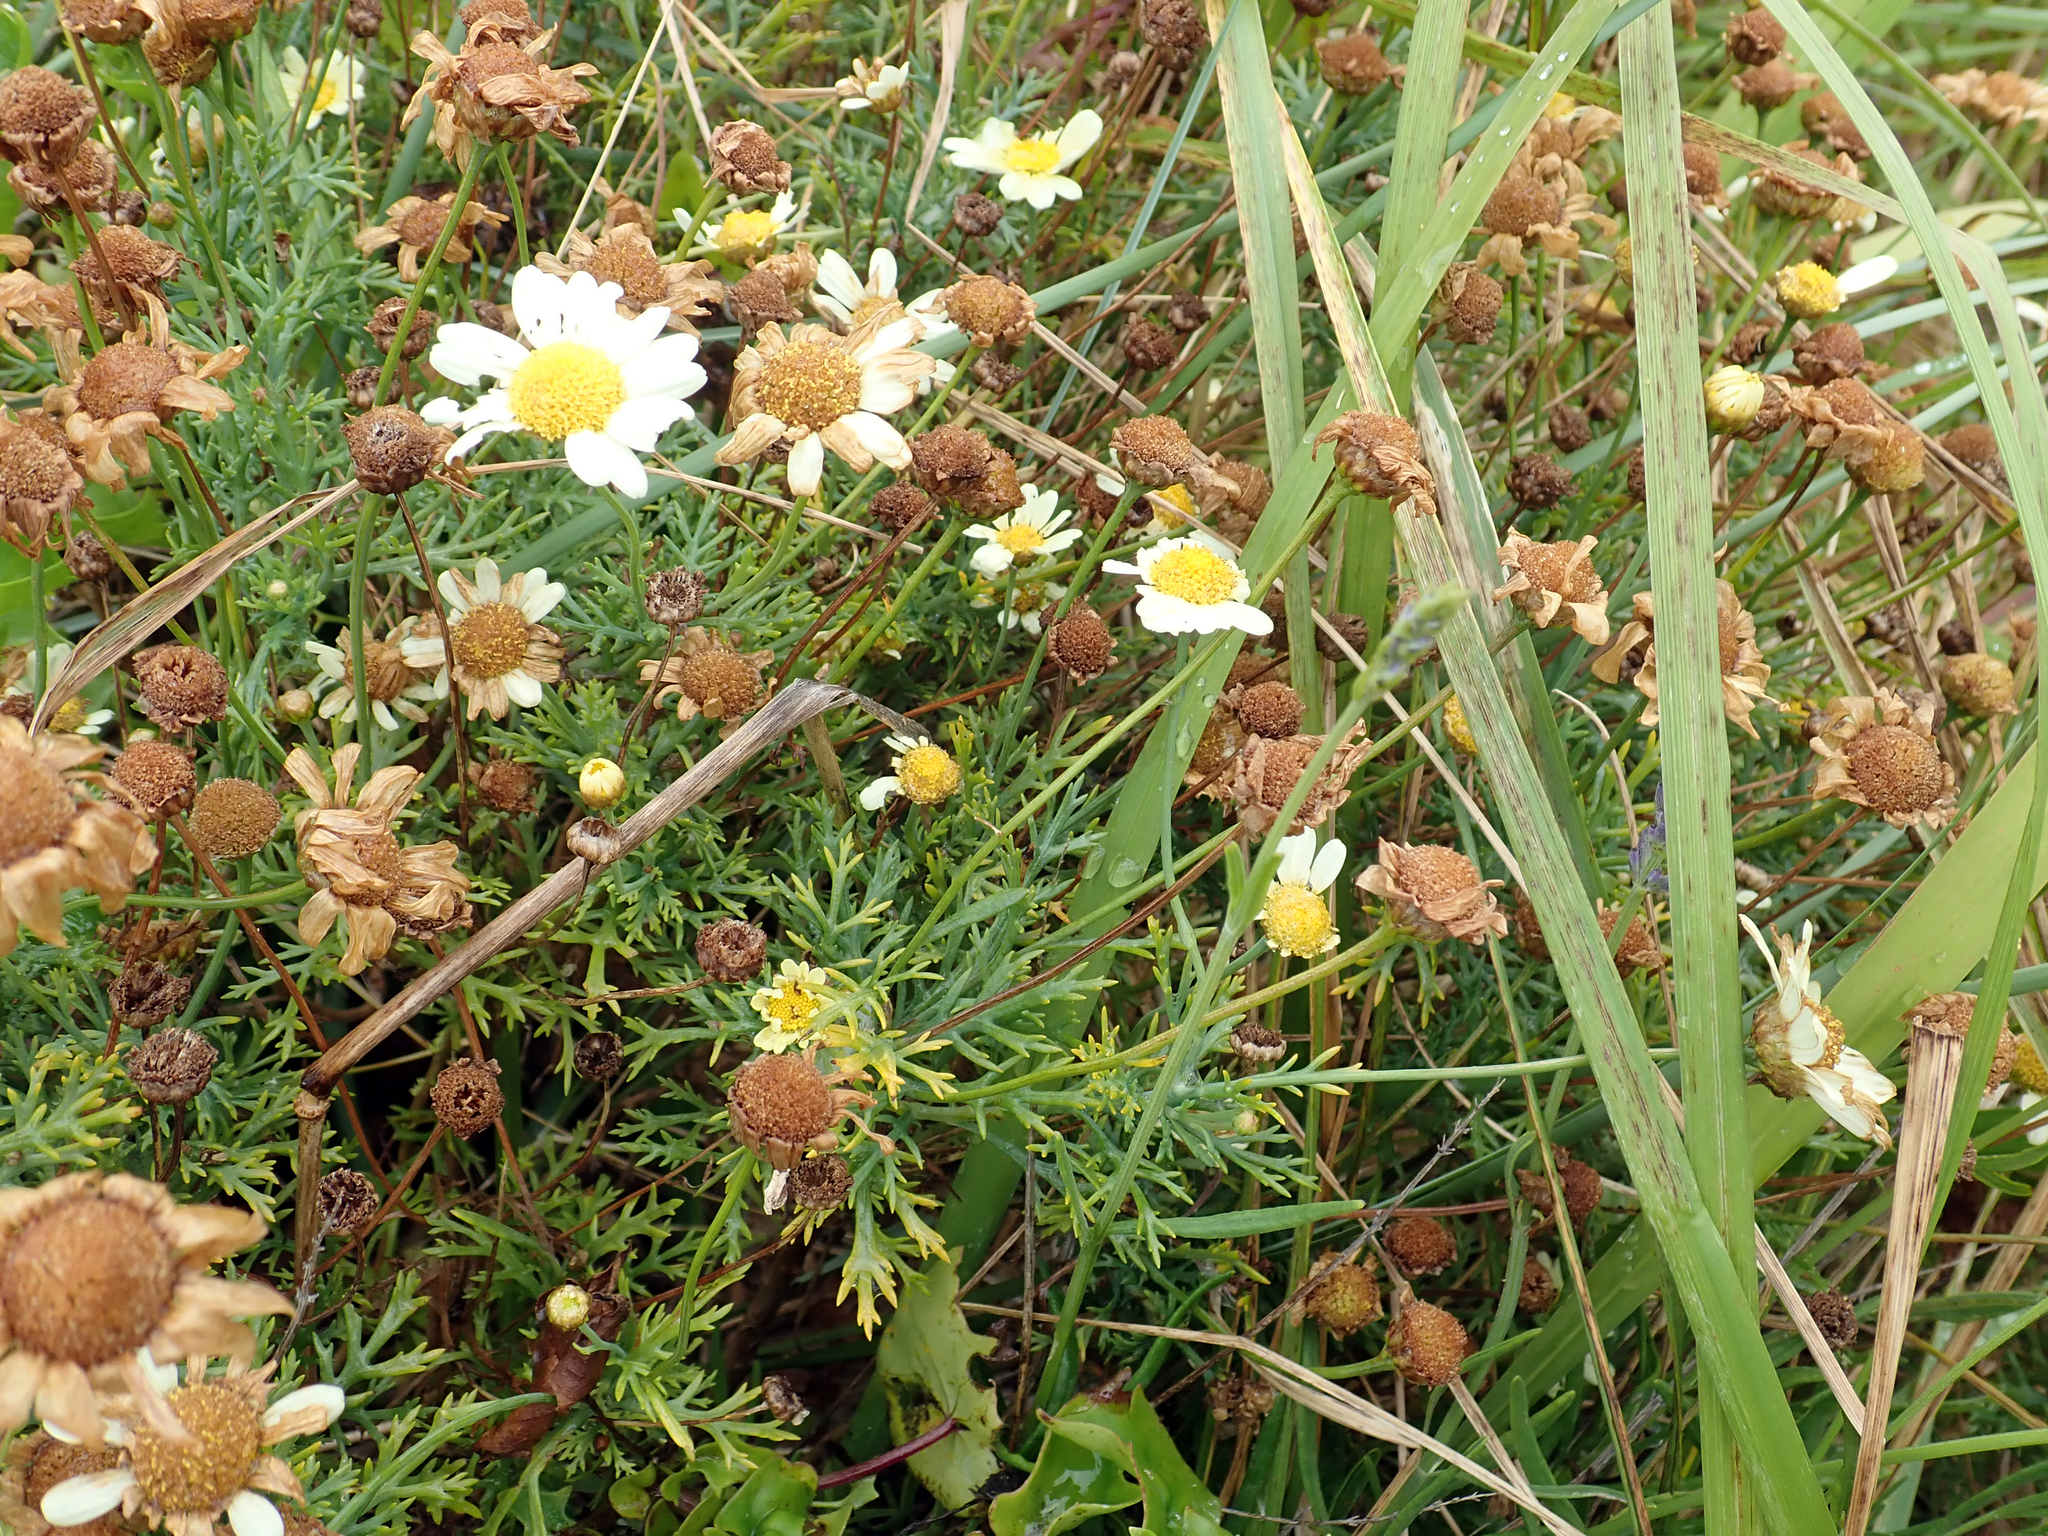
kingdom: Plantae
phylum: Tracheophyta
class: Magnoliopsida
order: Asterales
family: Asteraceae
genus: Argyranthemum
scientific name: Argyranthemum frutescens
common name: Paris daisy
